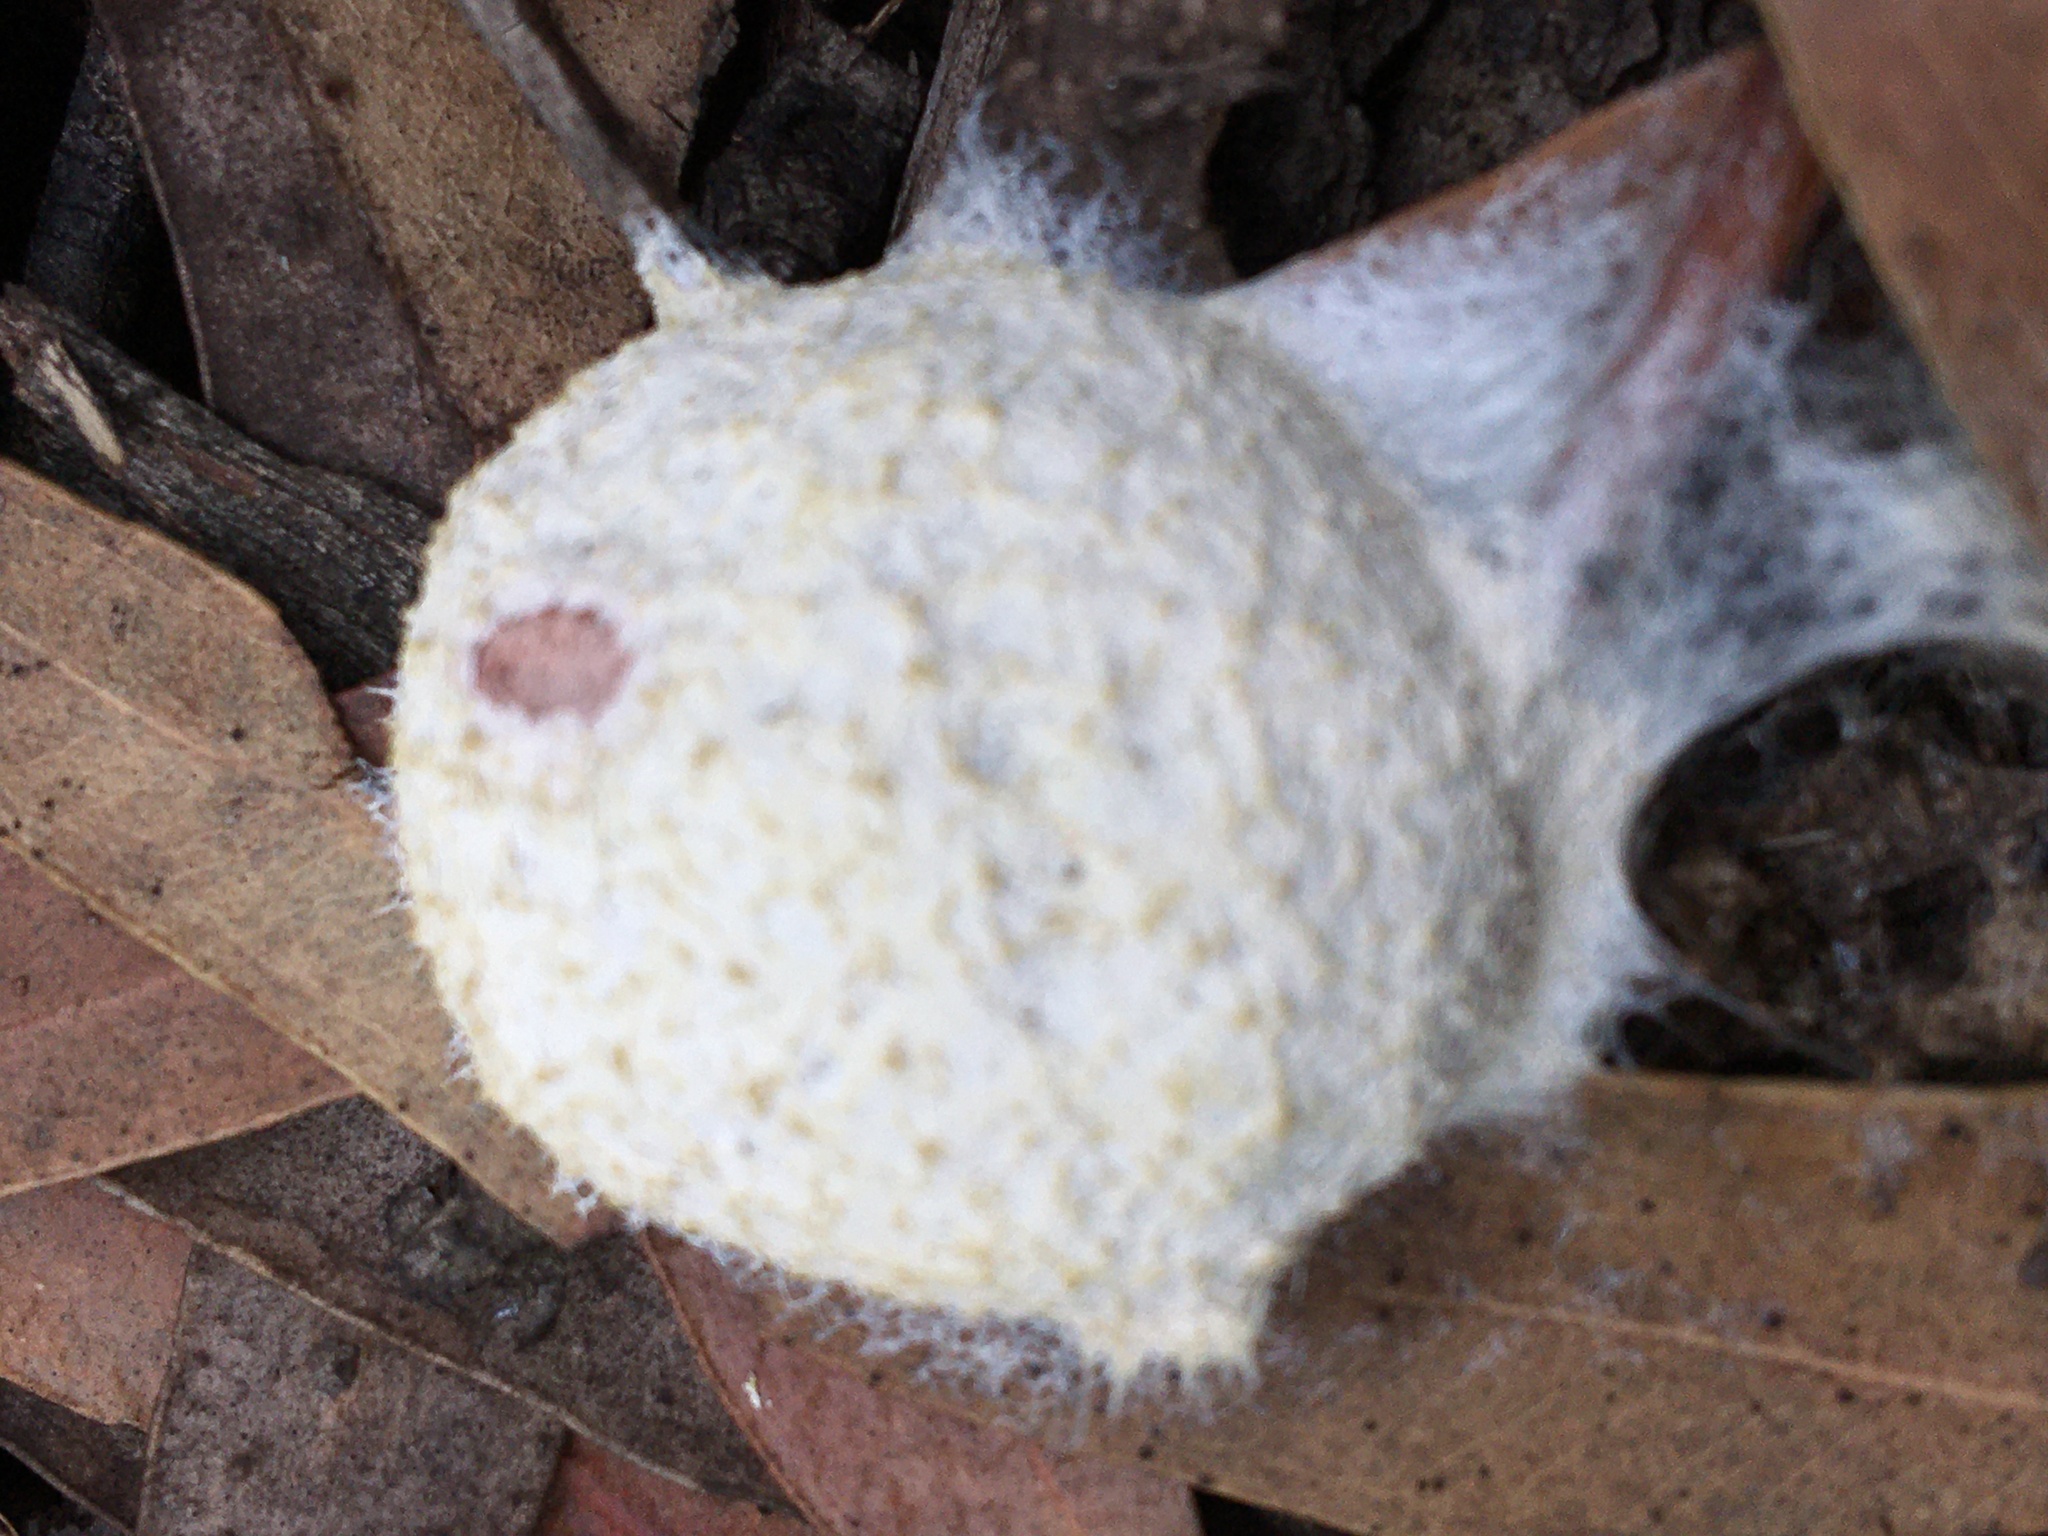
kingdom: Protozoa
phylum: Mycetozoa
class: Myxomycetes
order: Physarales
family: Physaraceae
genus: Fuligo
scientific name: Fuligo septica
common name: Dog vomit slime mold
